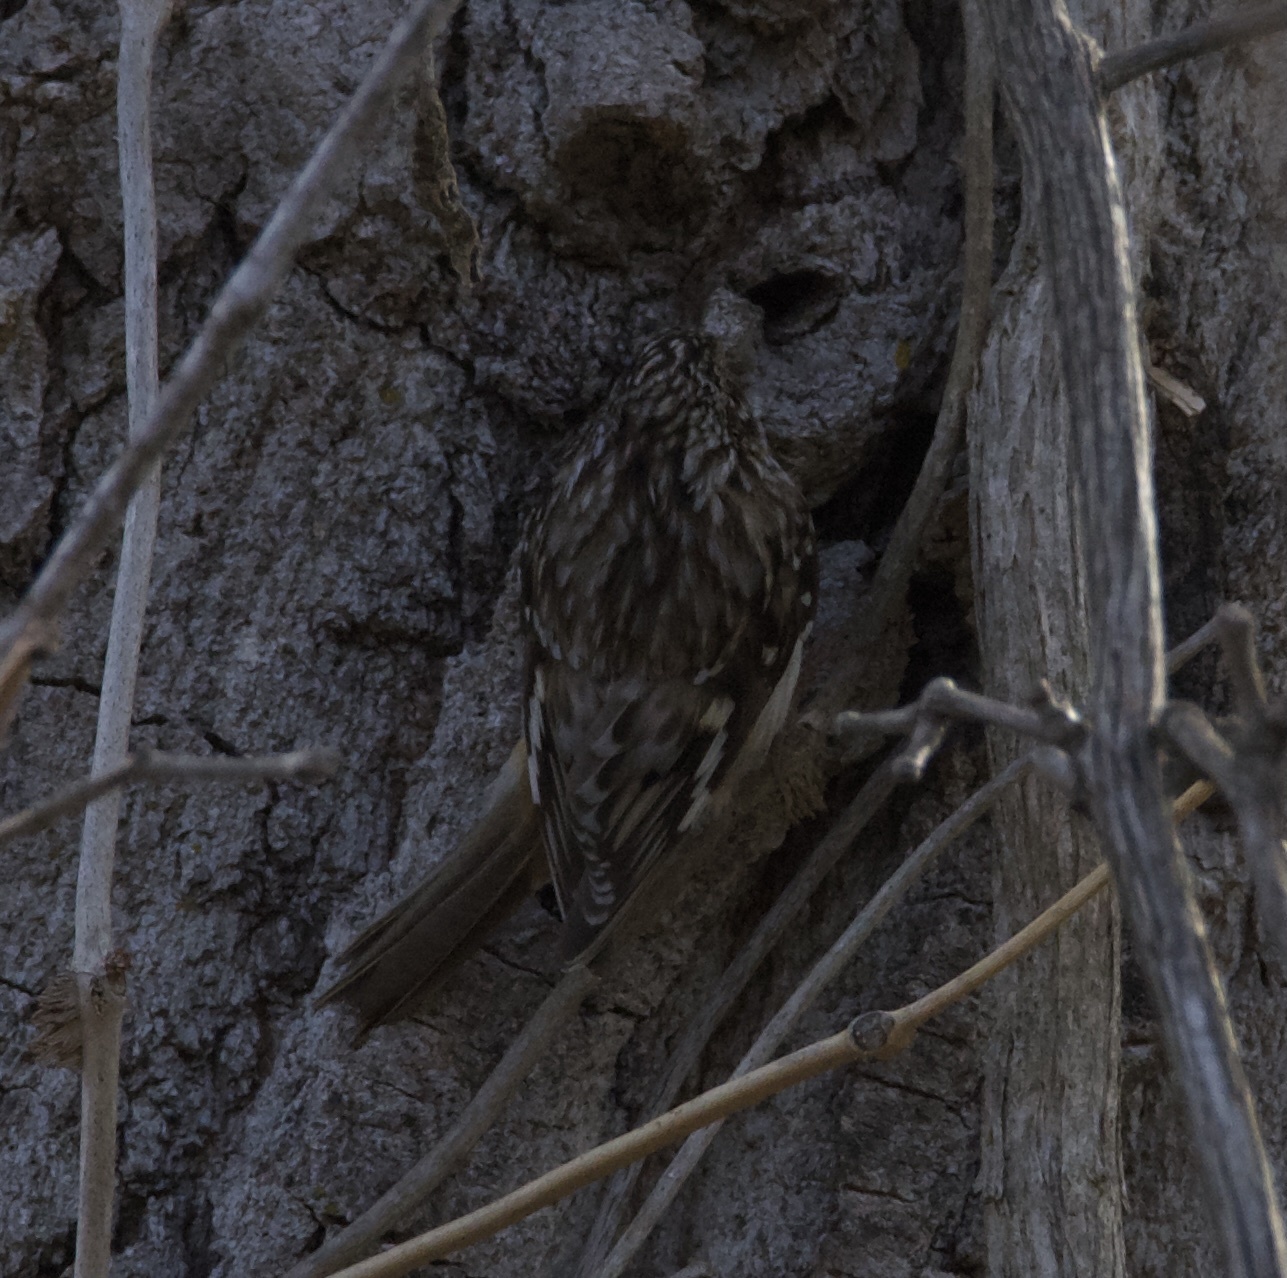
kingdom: Animalia
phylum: Chordata
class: Aves
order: Passeriformes
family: Certhiidae
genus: Certhia
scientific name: Certhia americana
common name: Brown creeper
